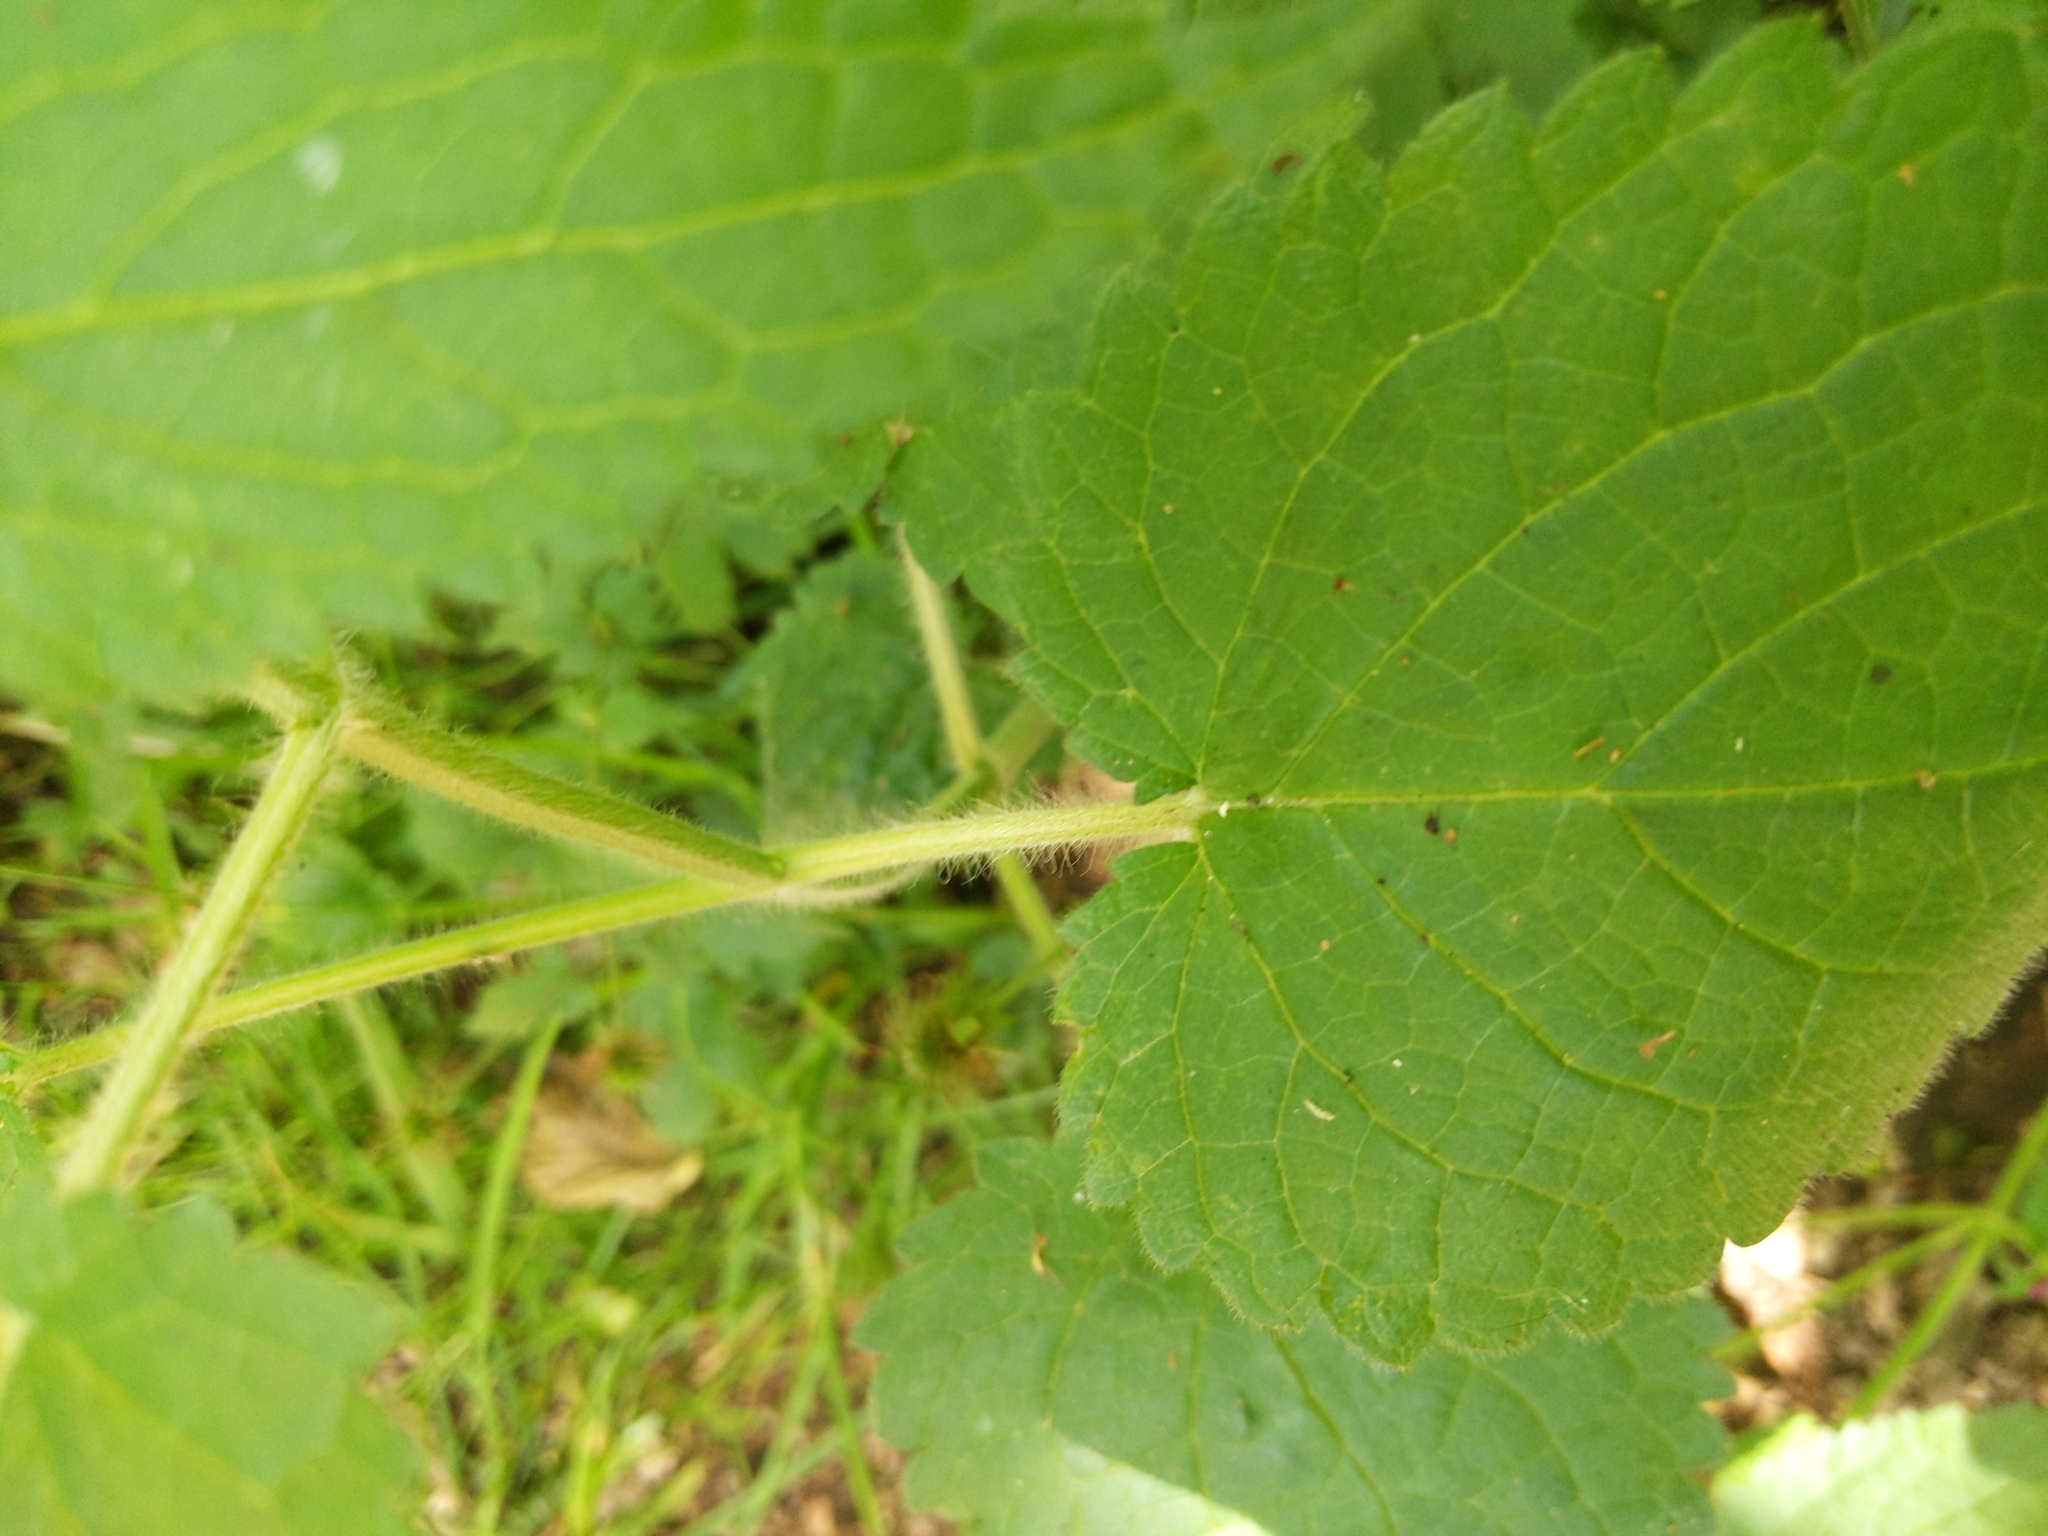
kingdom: Plantae
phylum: Tracheophyta
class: Magnoliopsida
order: Lamiales
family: Lamiaceae
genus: Stachys
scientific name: Stachys sylvatica
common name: Hedge woundwort
